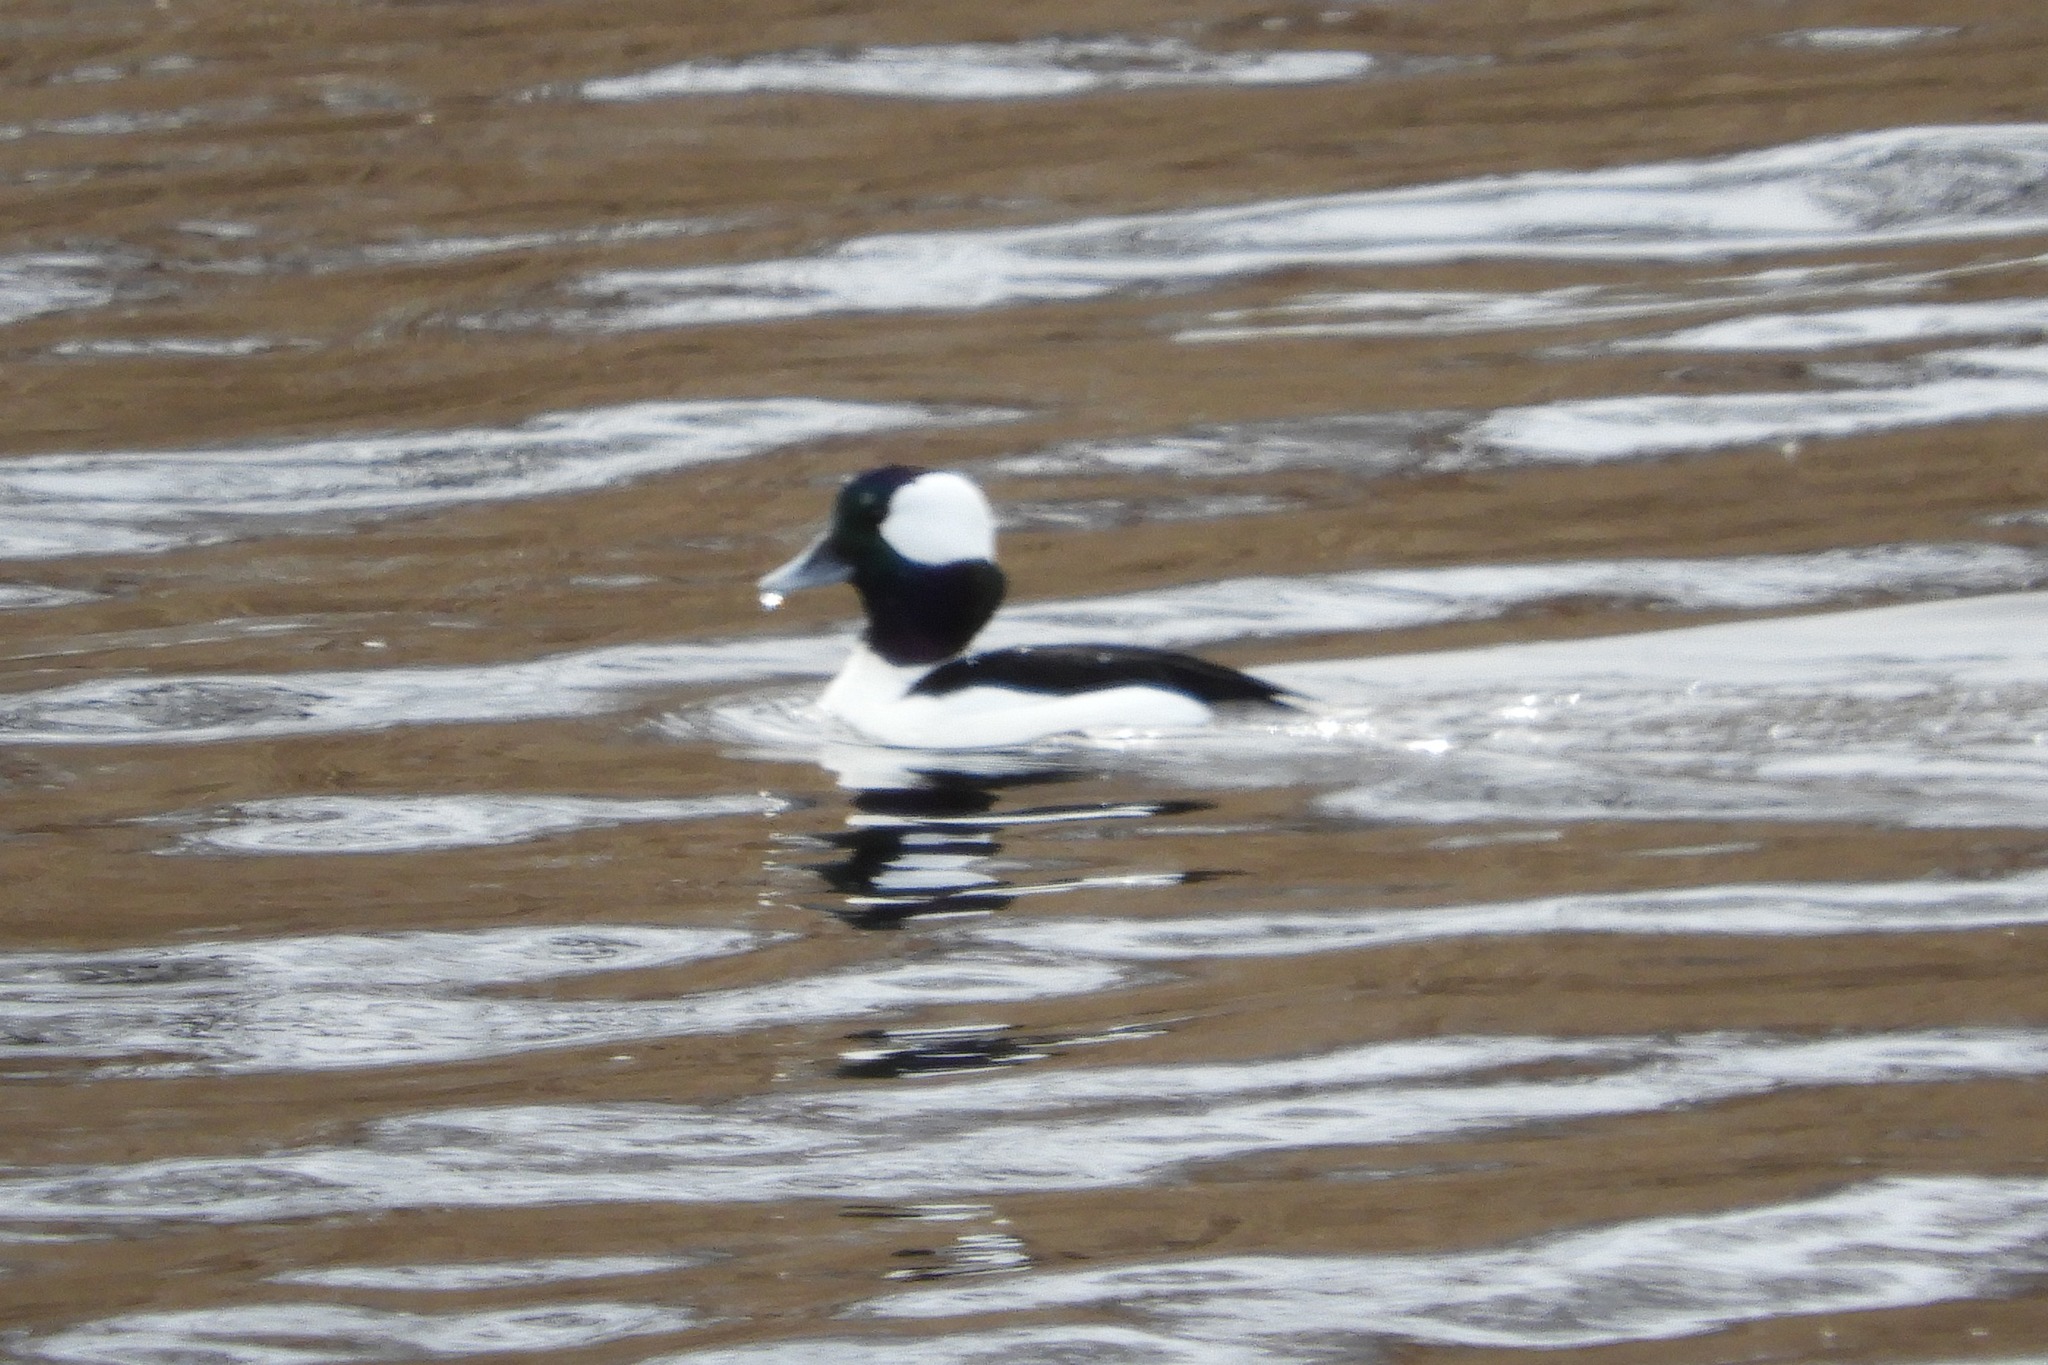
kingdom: Animalia
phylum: Chordata
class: Aves
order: Anseriformes
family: Anatidae
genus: Bucephala
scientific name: Bucephala albeola
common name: Bufflehead
